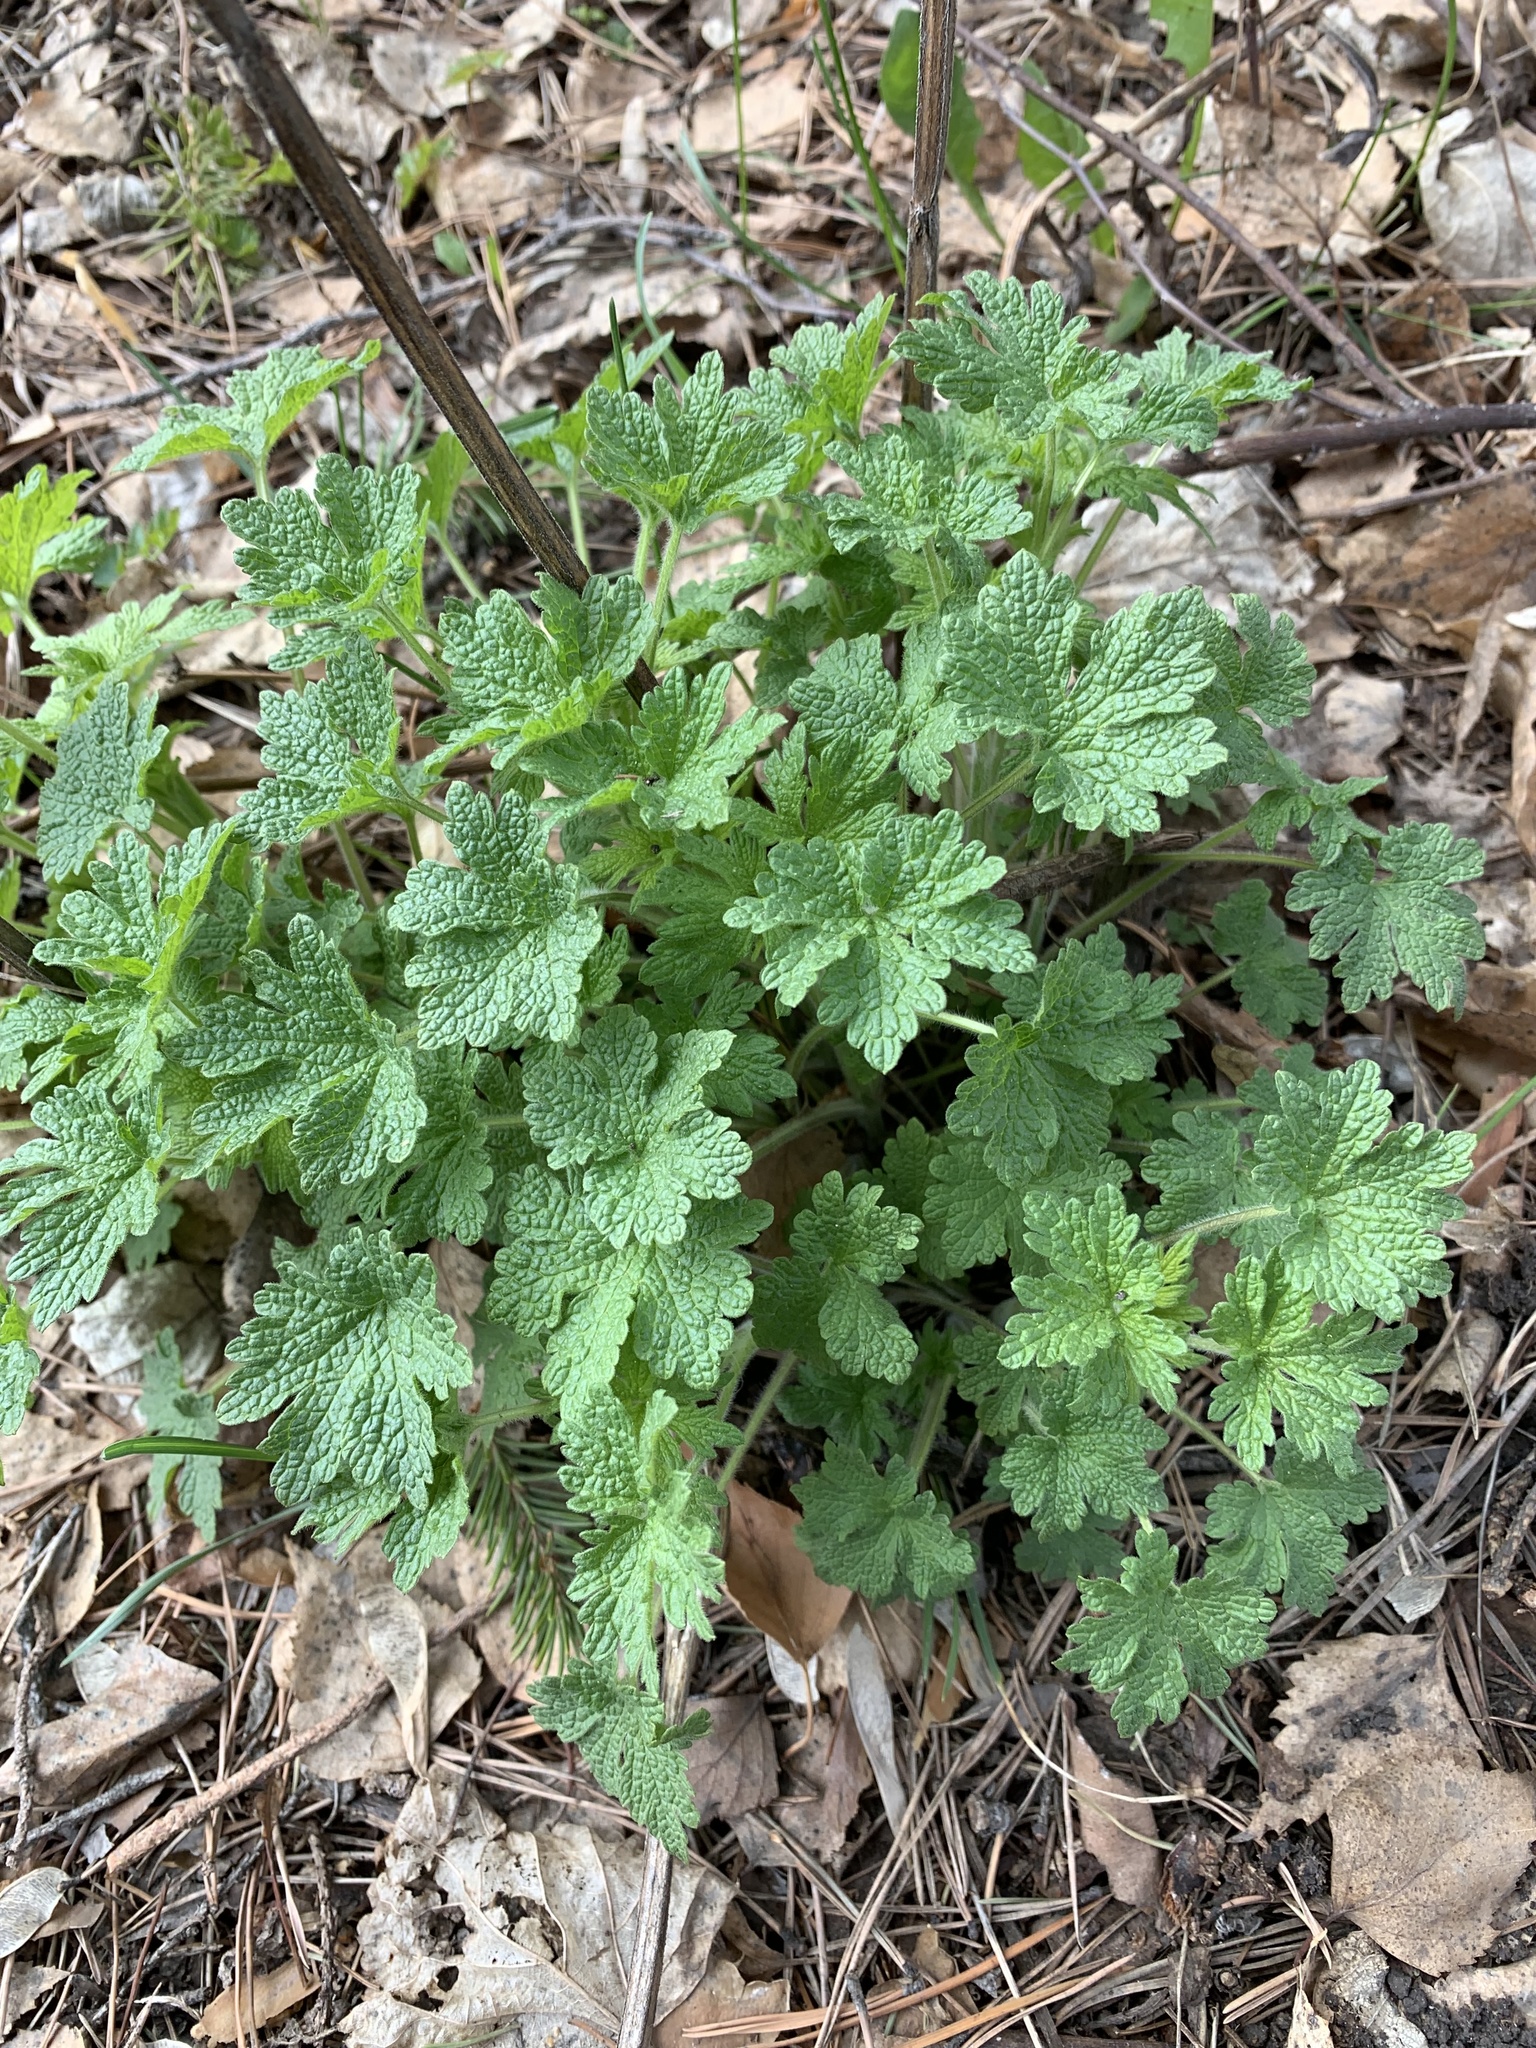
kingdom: Plantae
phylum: Tracheophyta
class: Magnoliopsida
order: Lamiales
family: Lamiaceae
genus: Leonurus
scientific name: Leonurus quinquelobatus
